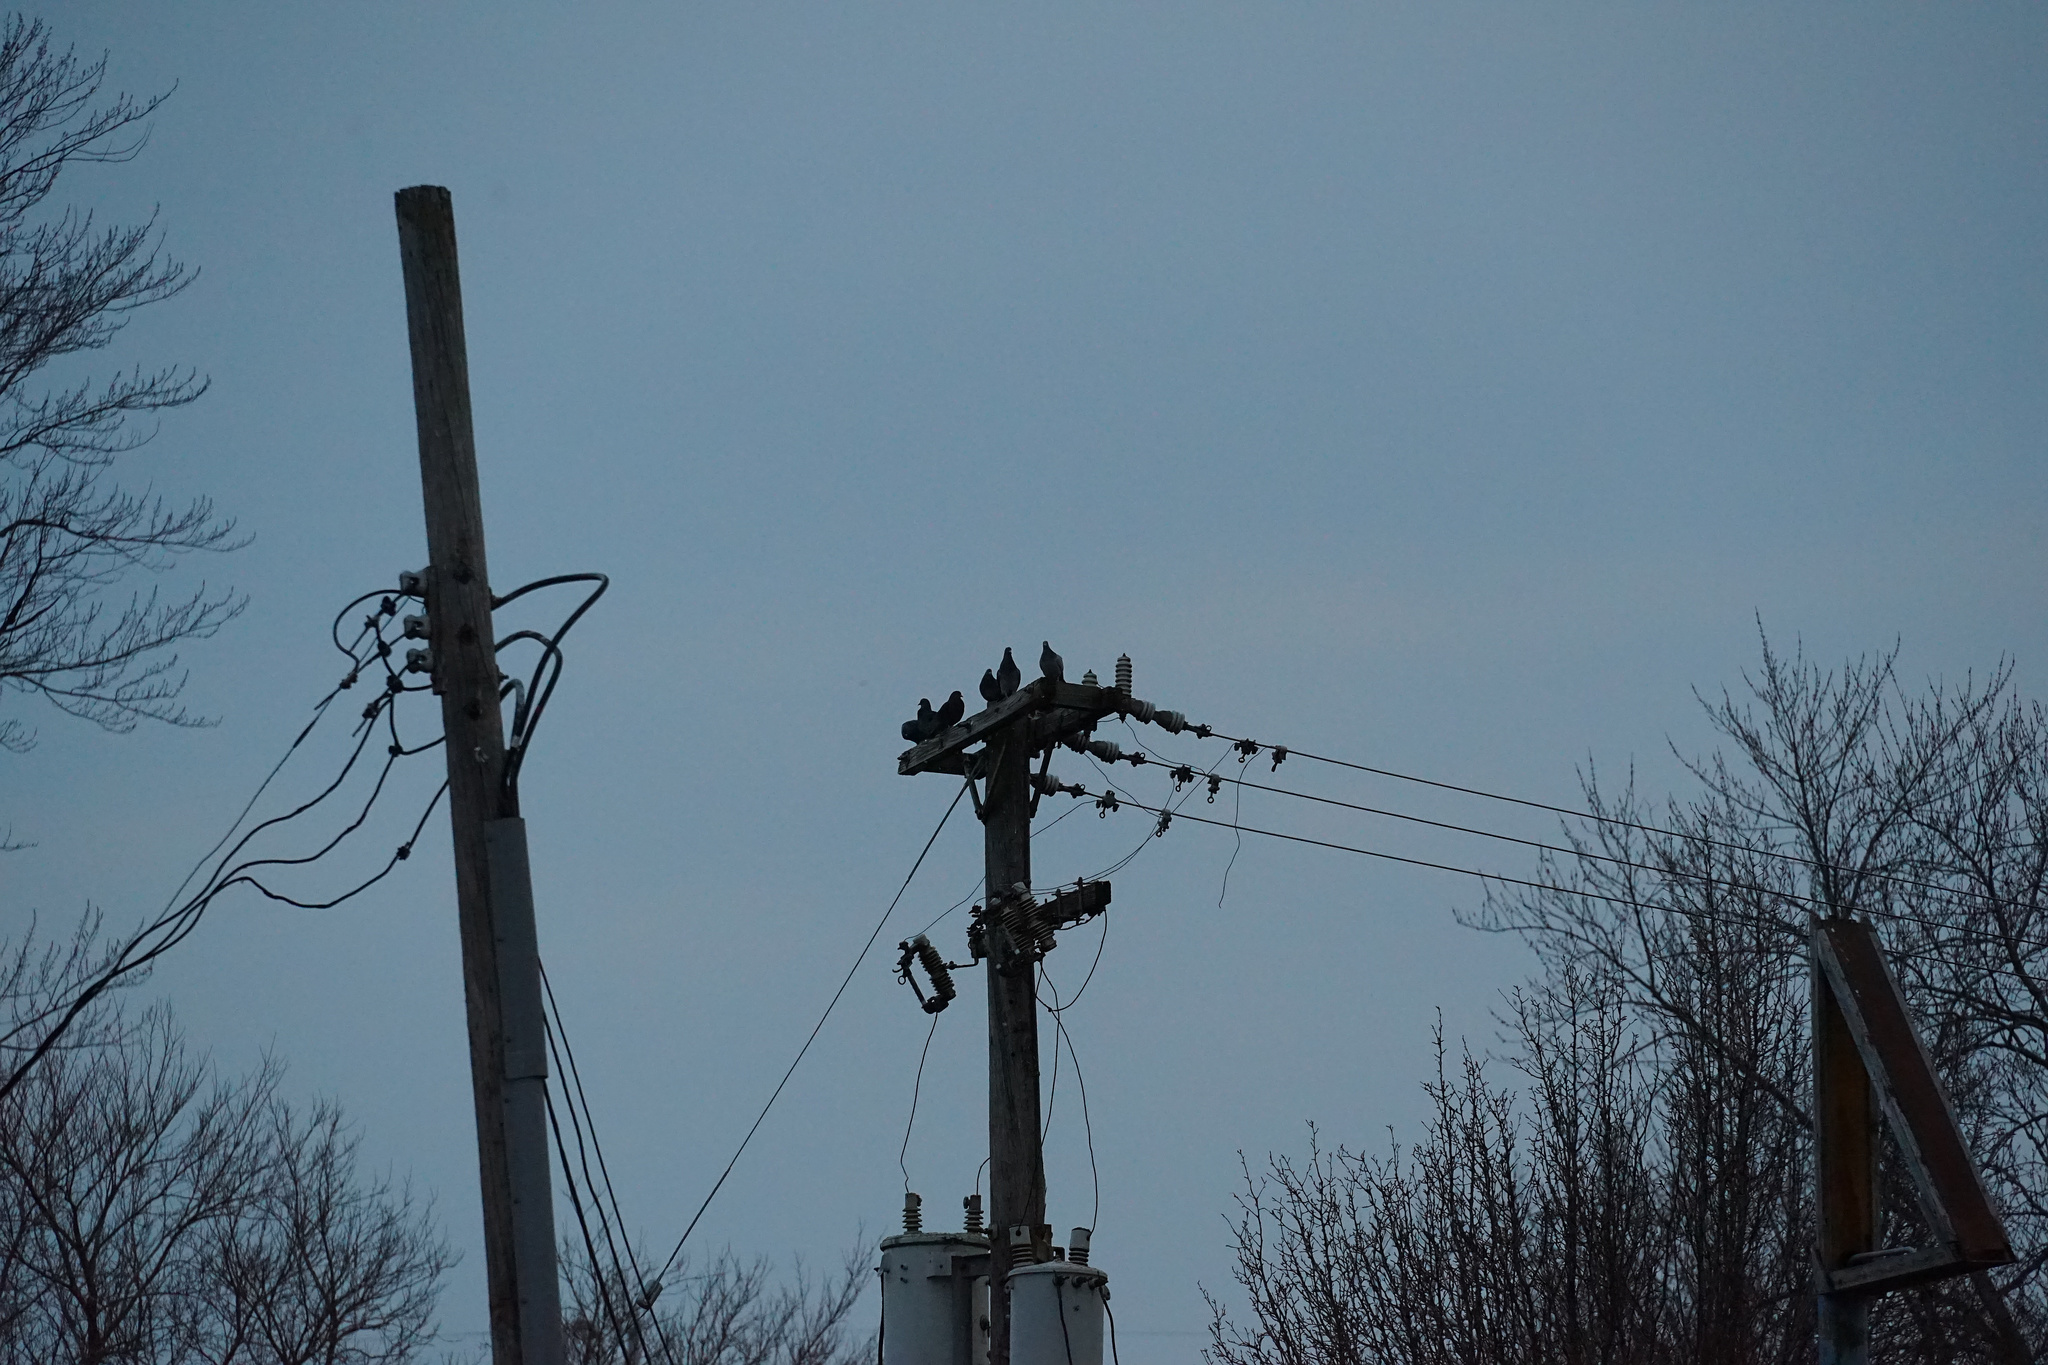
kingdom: Animalia
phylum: Chordata
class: Aves
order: Columbiformes
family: Columbidae
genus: Columba
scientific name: Columba livia
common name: Rock pigeon
